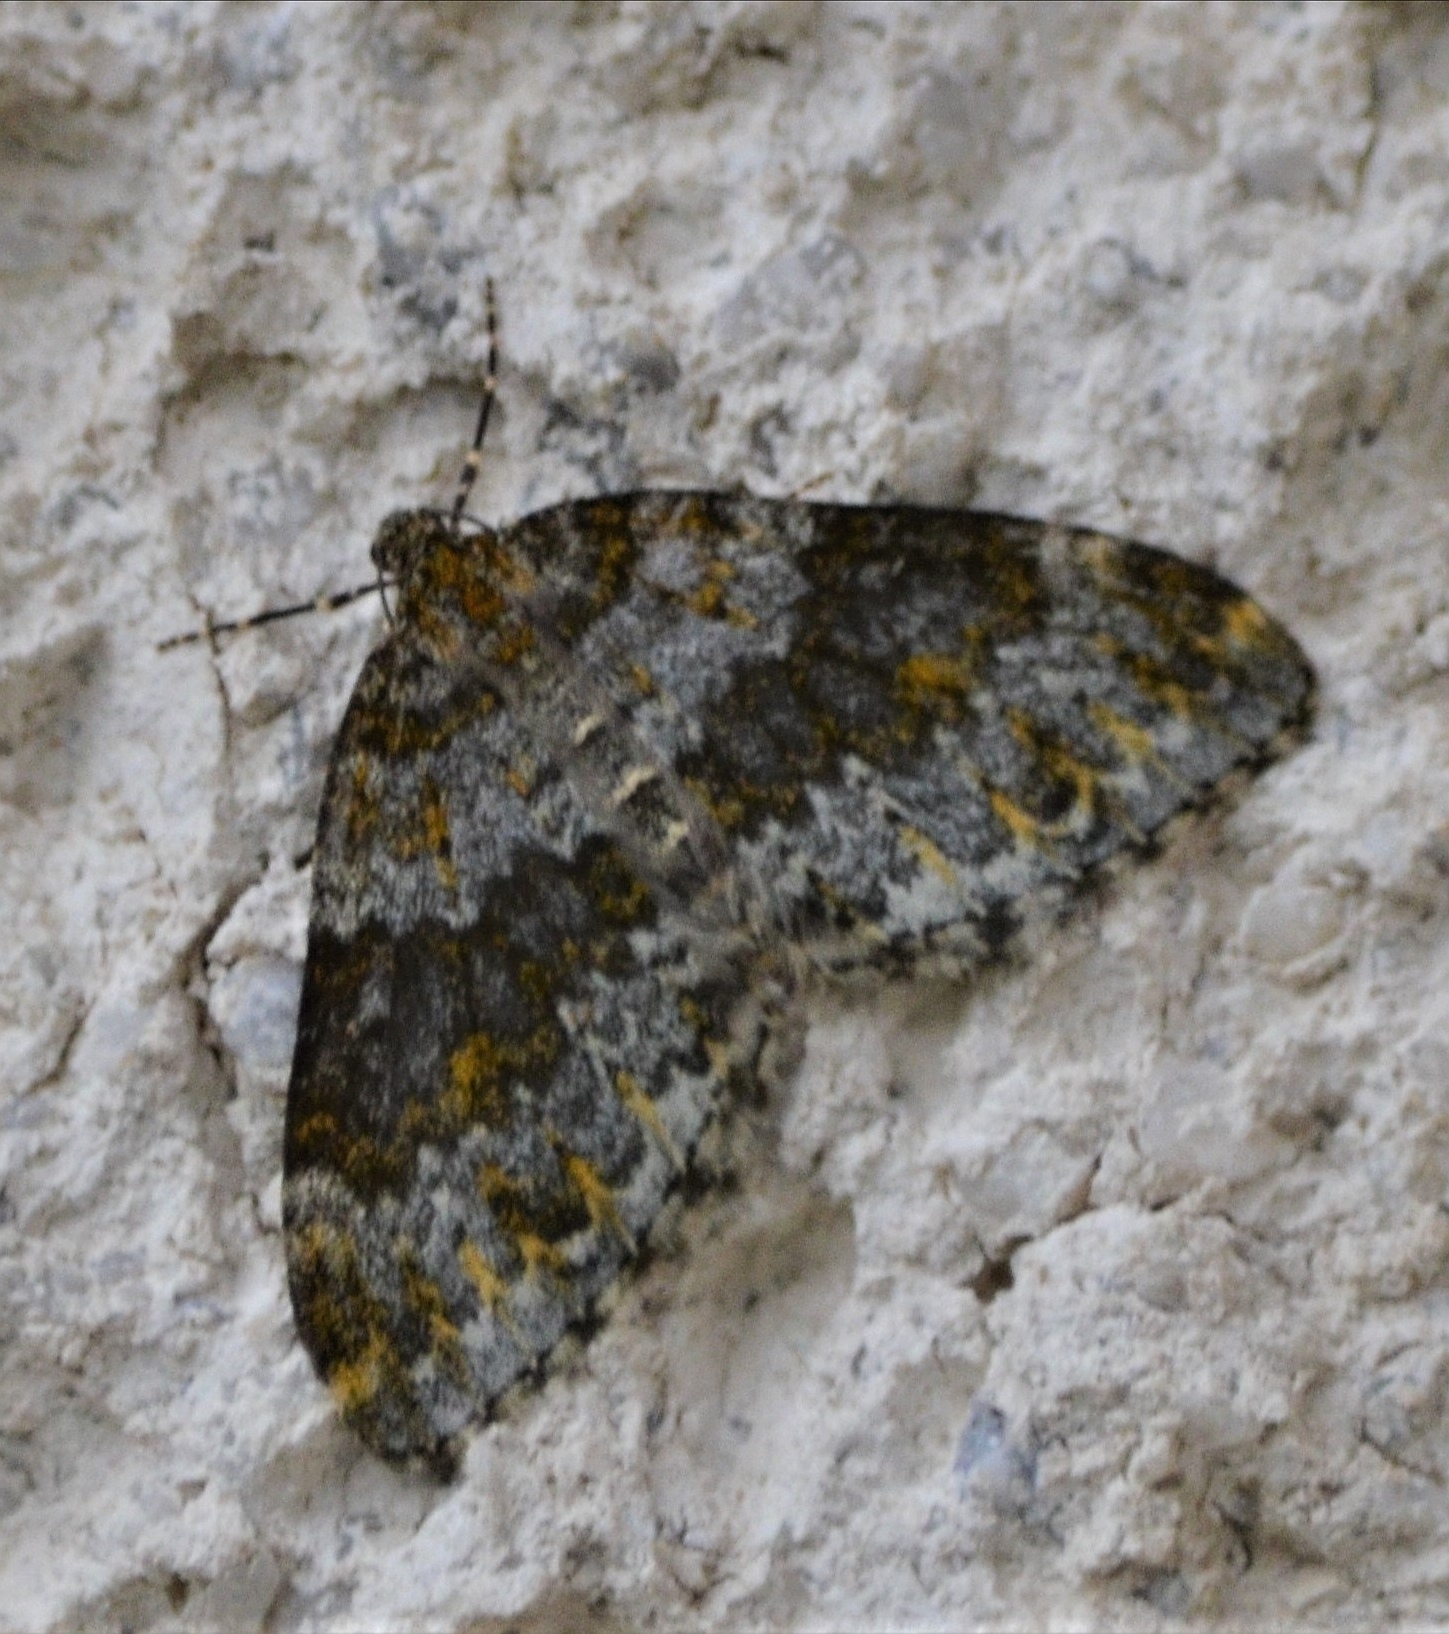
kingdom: Animalia
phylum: Arthropoda
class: Insecta
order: Lepidoptera
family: Geometridae
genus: Entephria
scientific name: Entephria flavicinctata
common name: Yellow-ringed carpet
